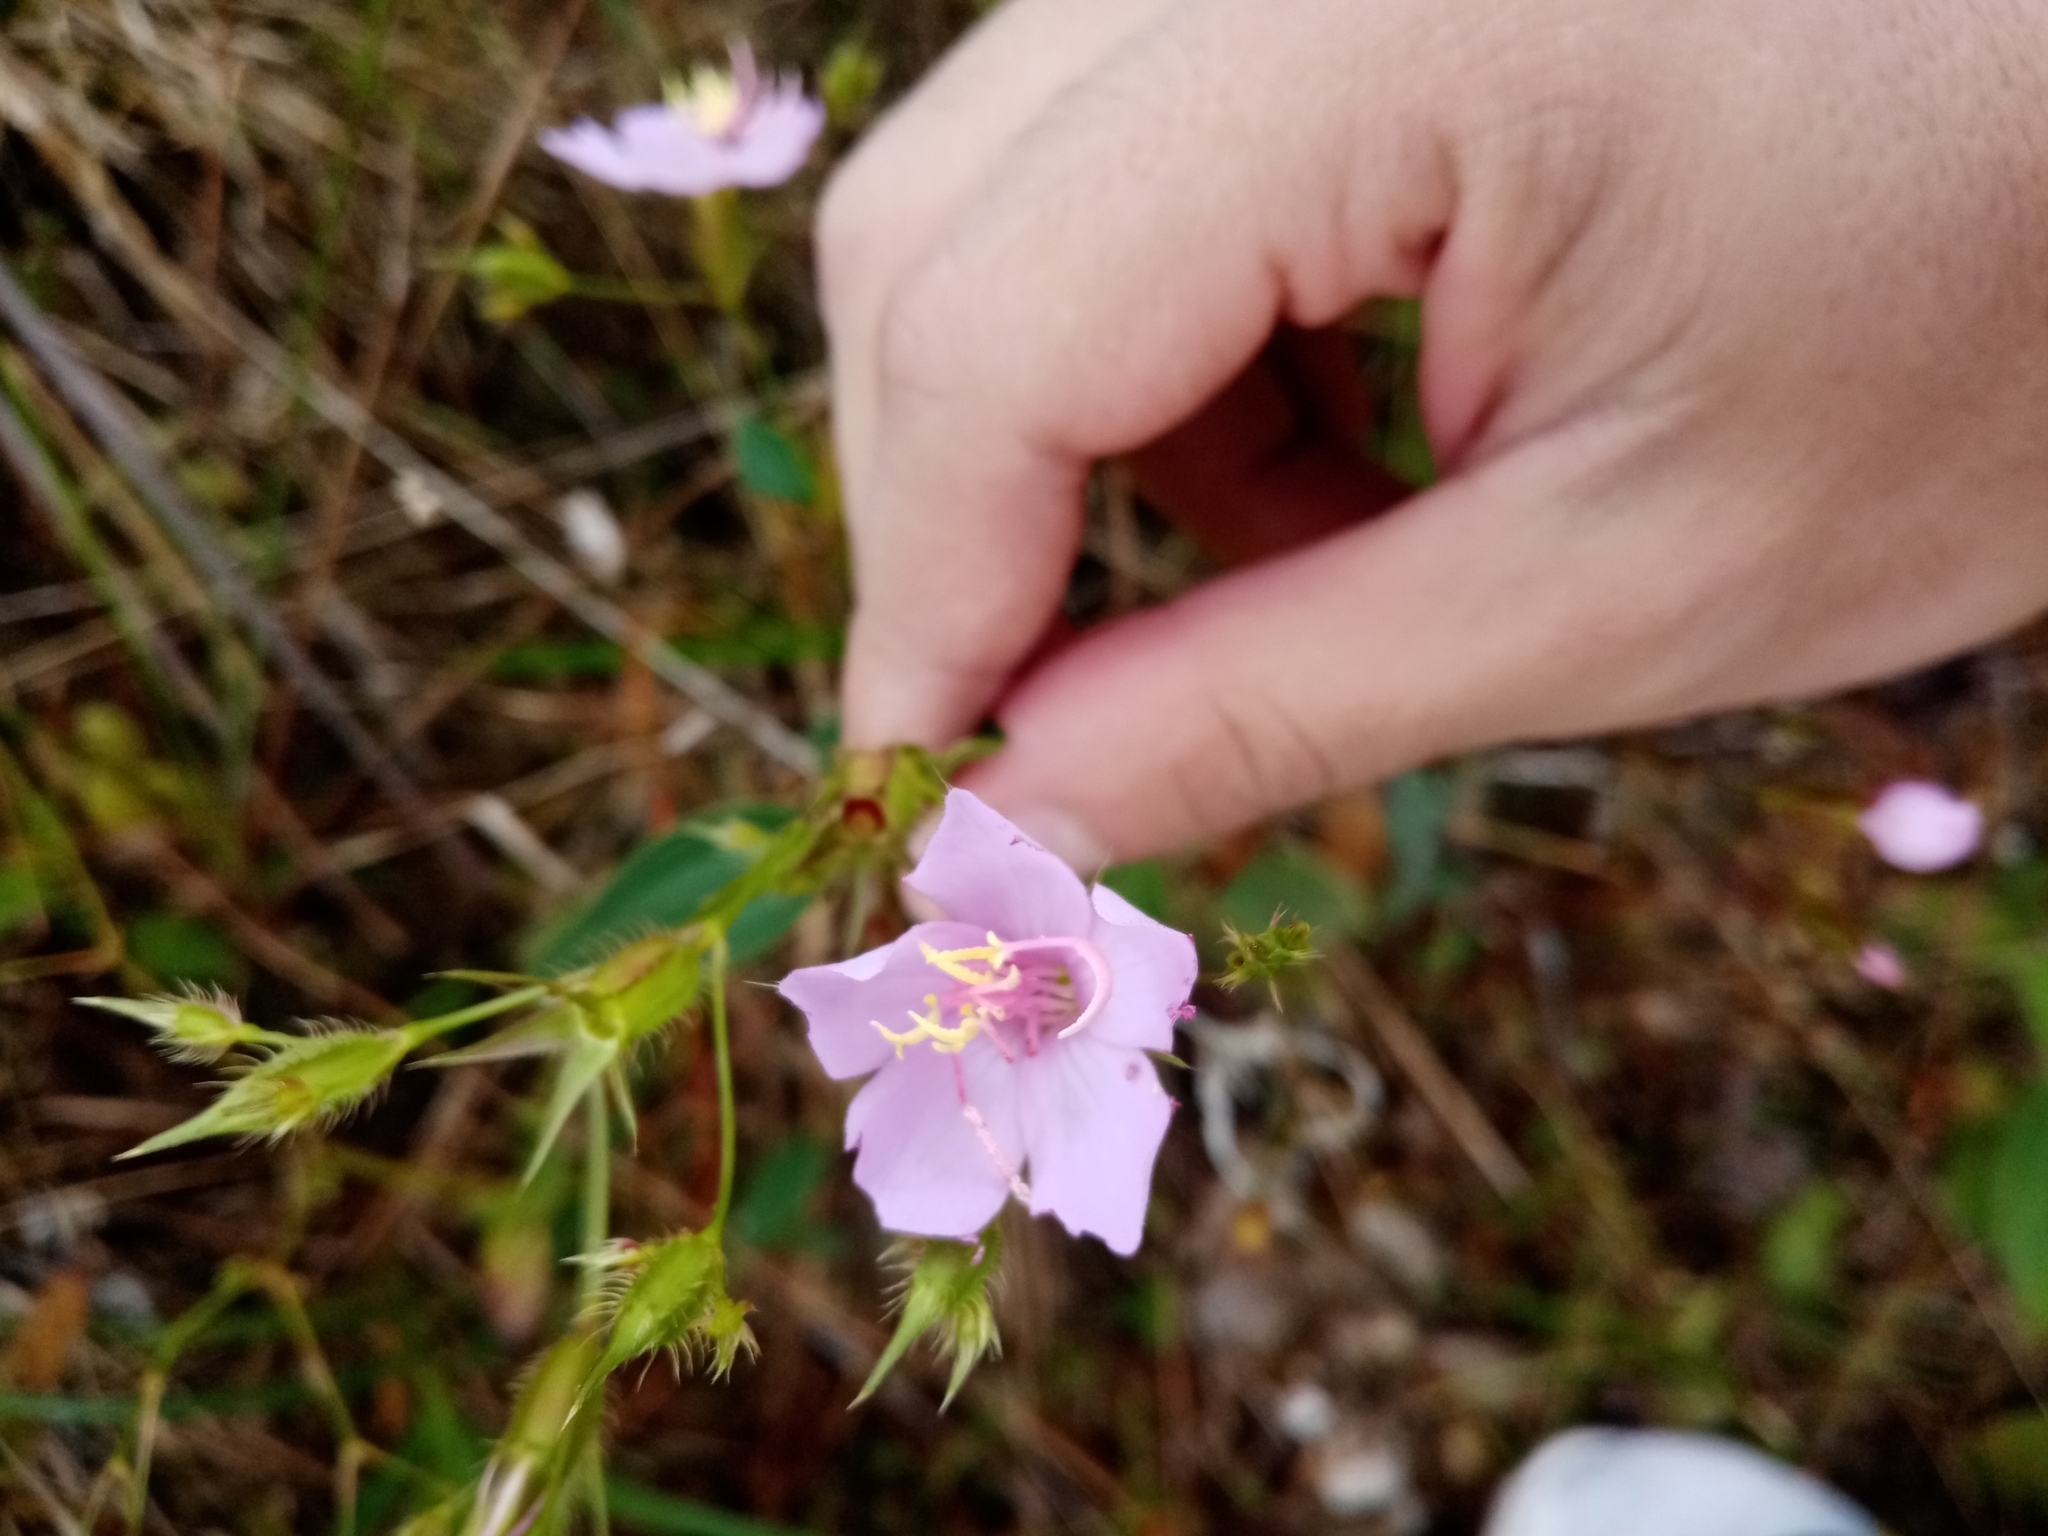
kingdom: Plantae
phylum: Tracheophyta
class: Magnoliopsida
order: Myrtales
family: Melastomataceae
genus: Pterogastra
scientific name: Pterogastra divaricata
